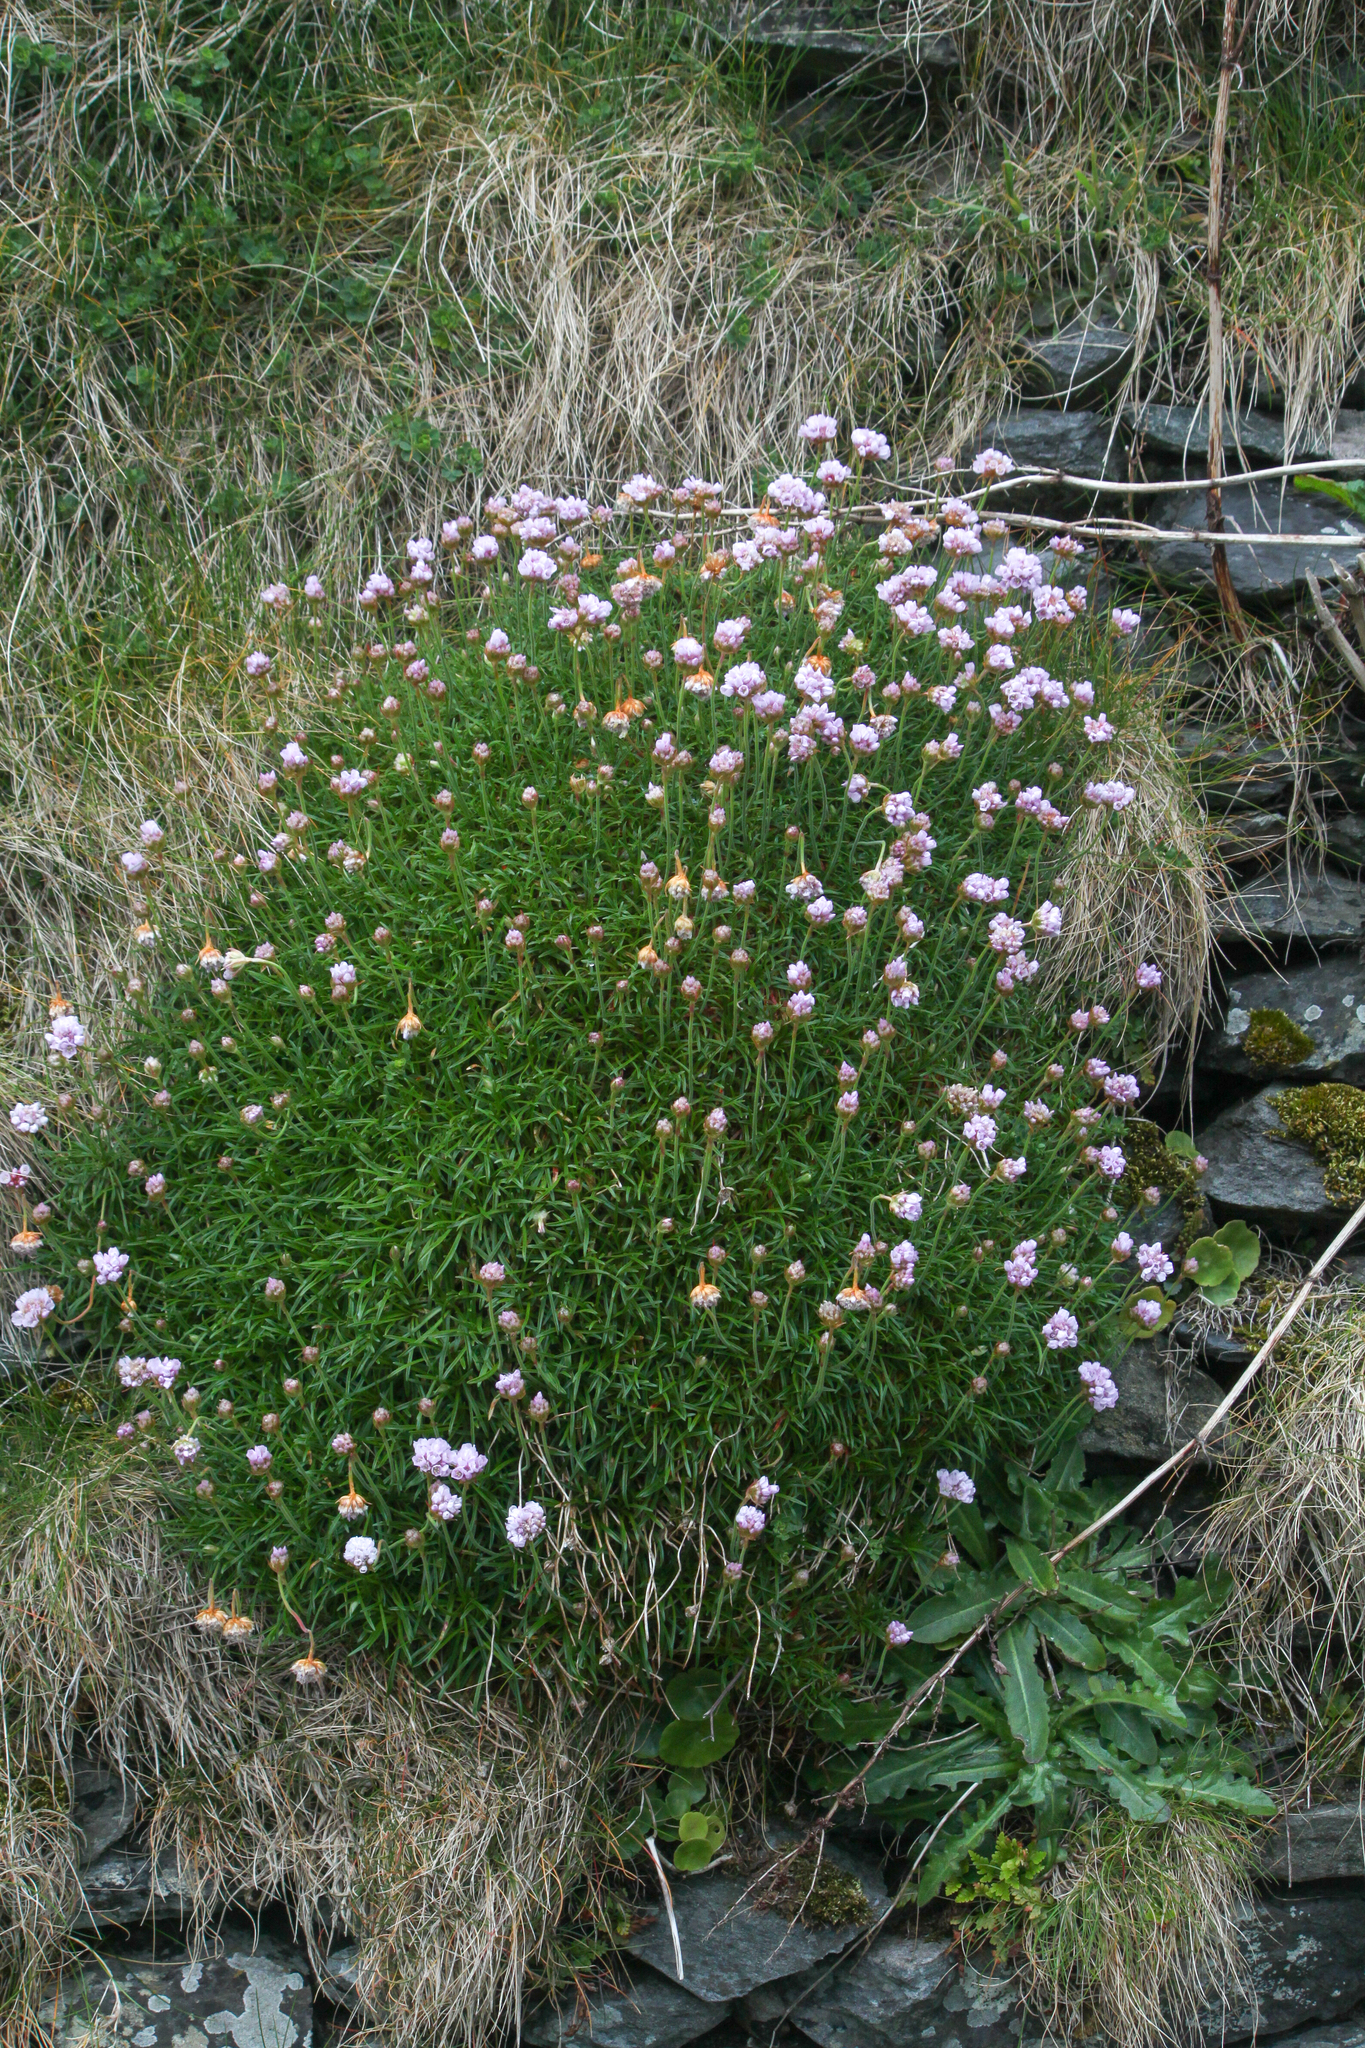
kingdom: Plantae
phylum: Tracheophyta
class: Magnoliopsida
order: Caryophyllales
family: Plumbaginaceae
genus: Armeria
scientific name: Armeria maritima
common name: Thrift
